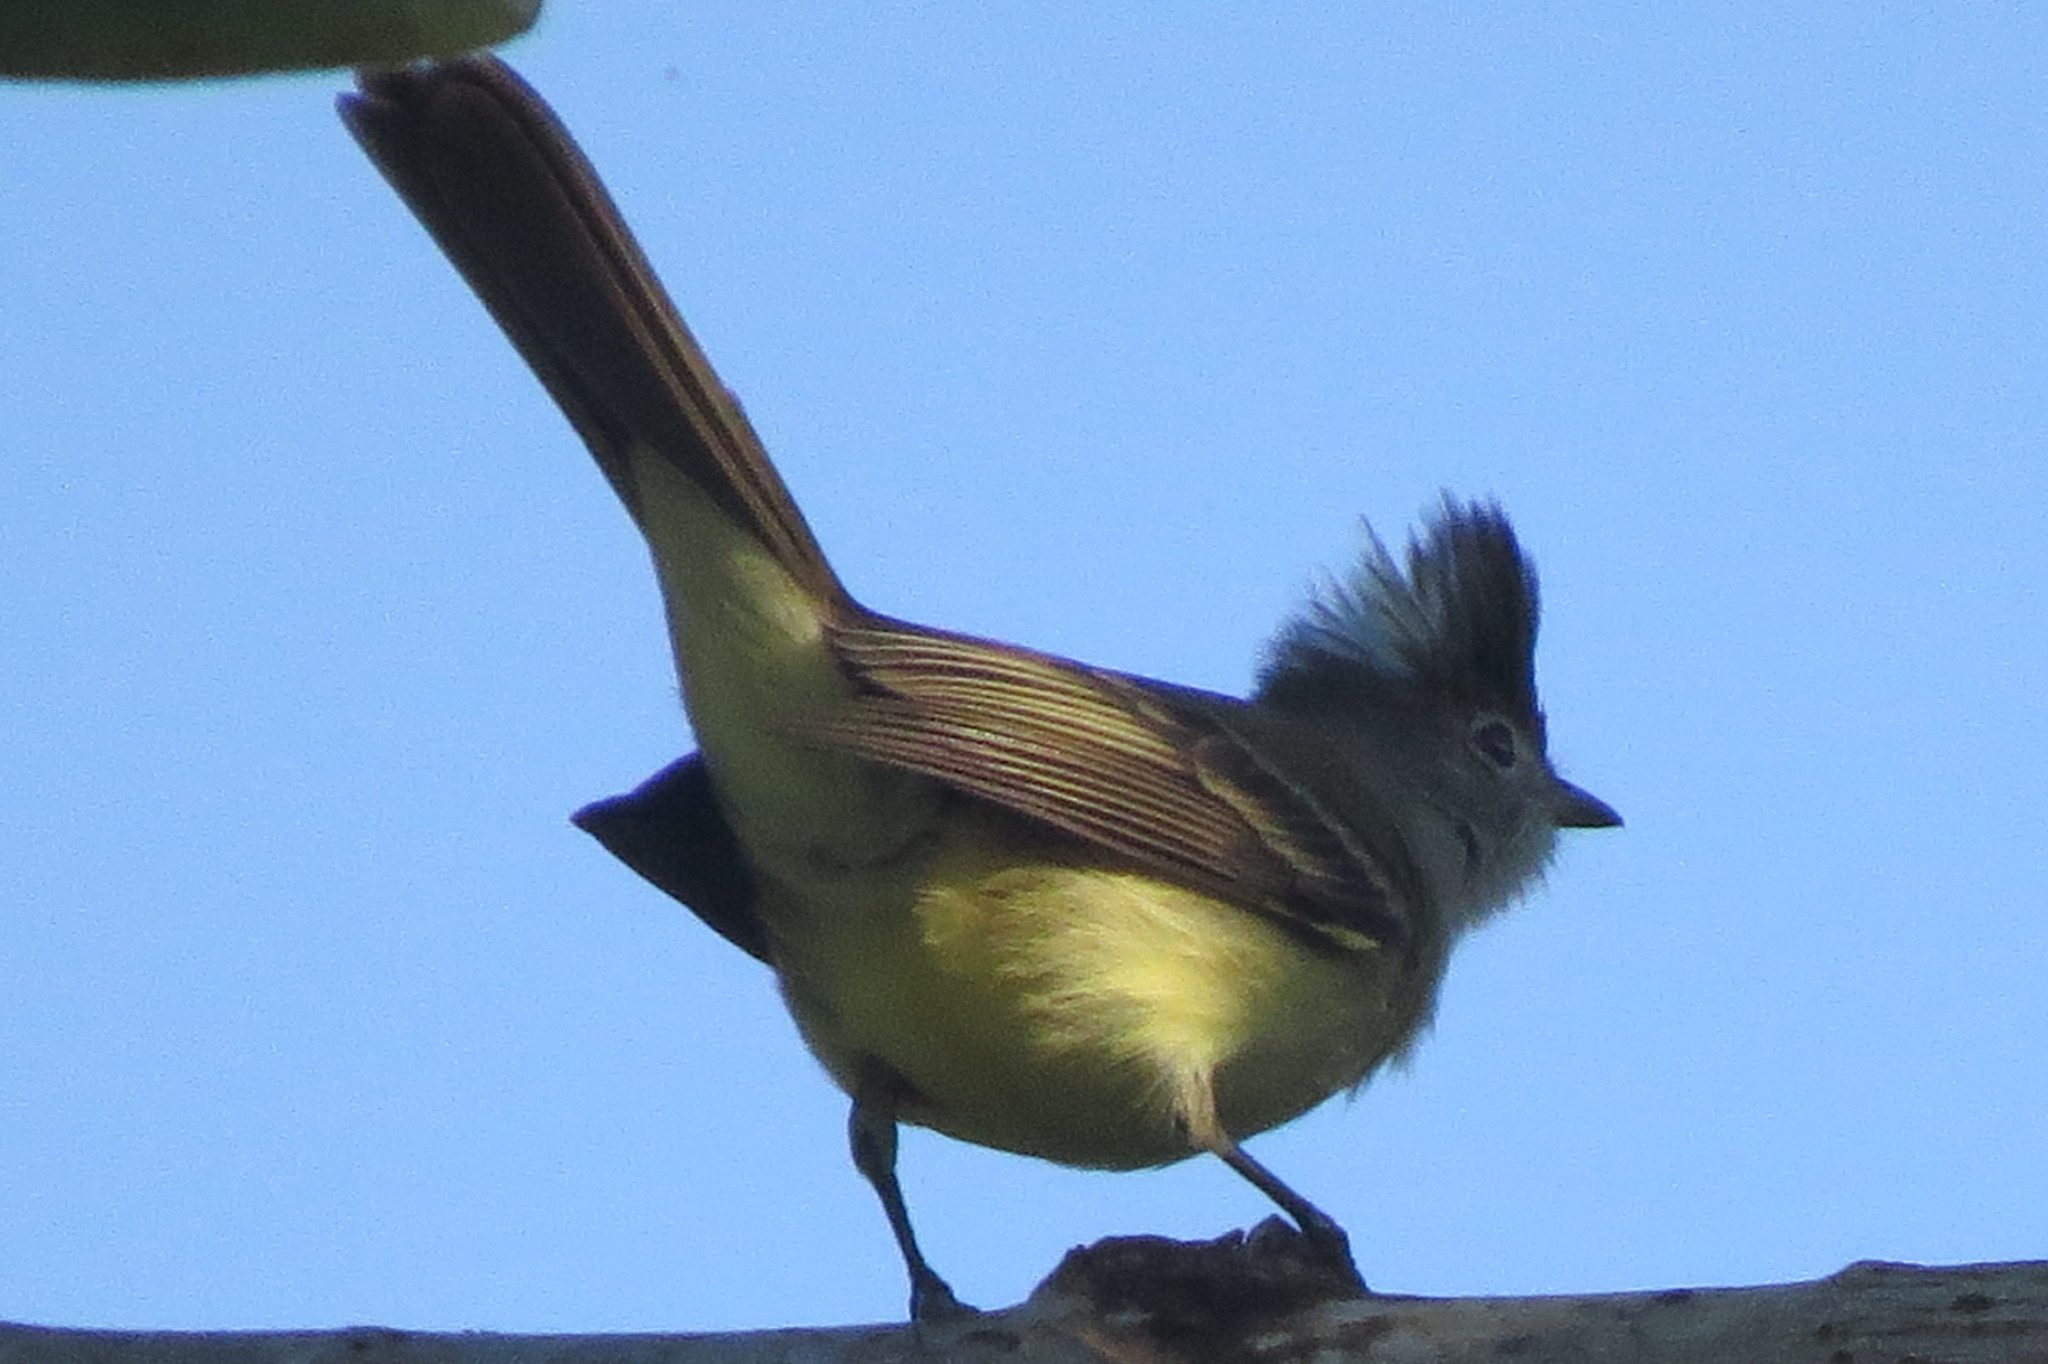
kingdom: Animalia
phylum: Chordata
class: Aves
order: Passeriformes
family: Tyrannidae
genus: Elaenia
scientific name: Elaenia flavogaster
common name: Yellow-bellied elaenia
